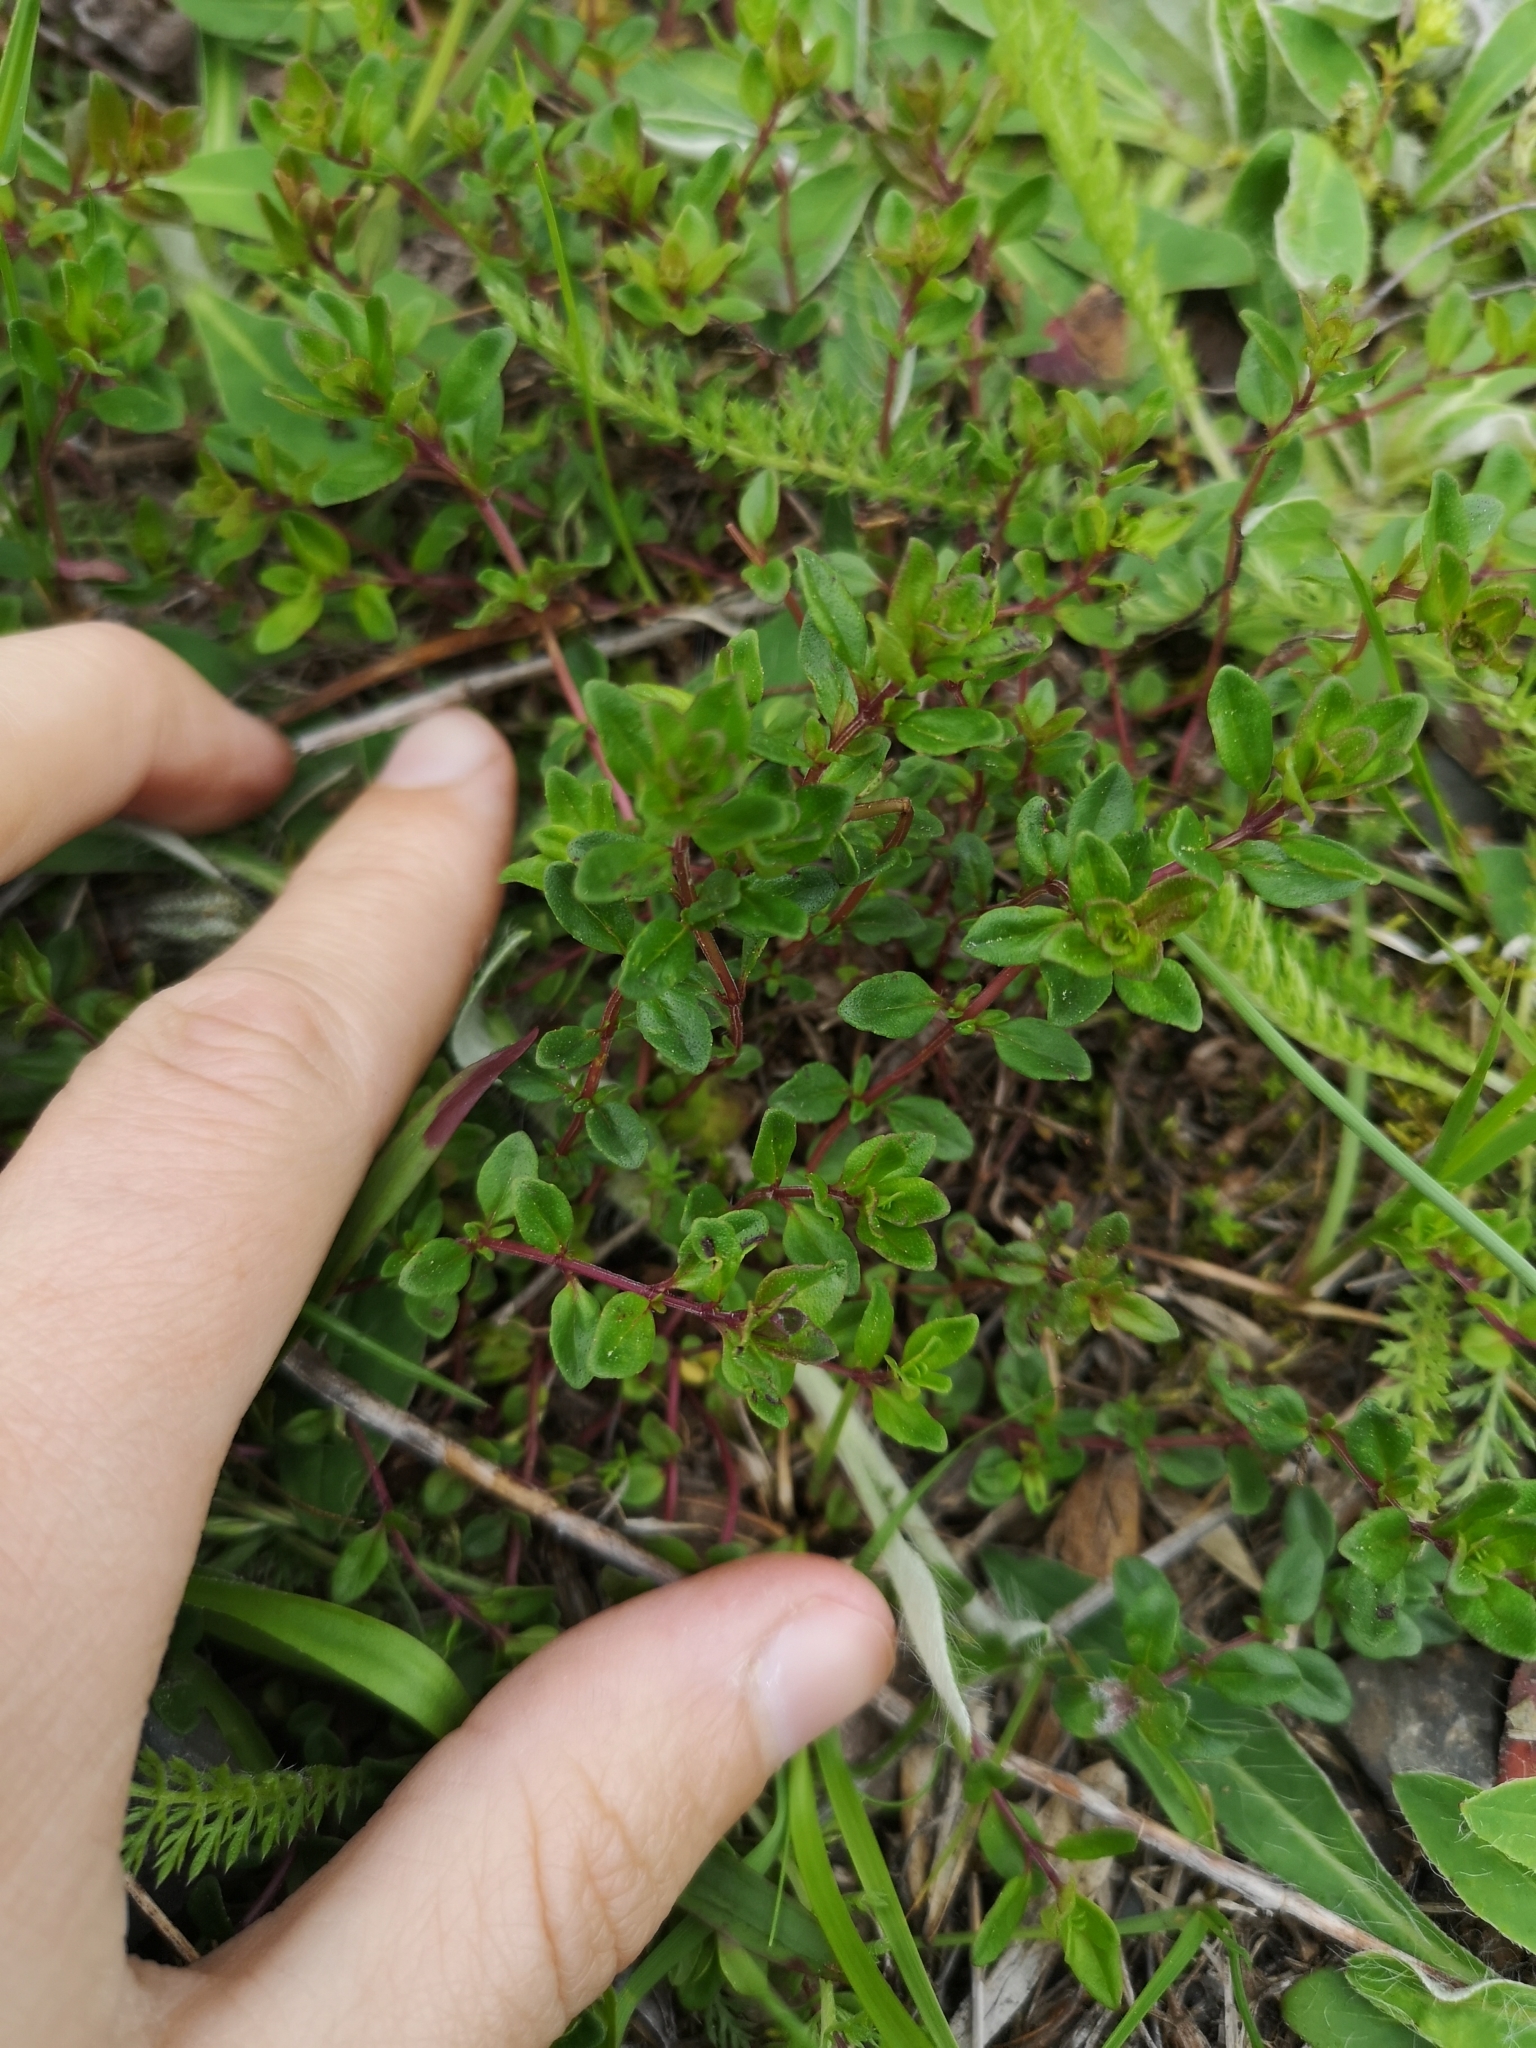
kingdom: Plantae
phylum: Tracheophyta
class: Magnoliopsida
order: Lamiales
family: Lamiaceae
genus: Thymus
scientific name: Thymus pulegioides
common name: Large thyme
